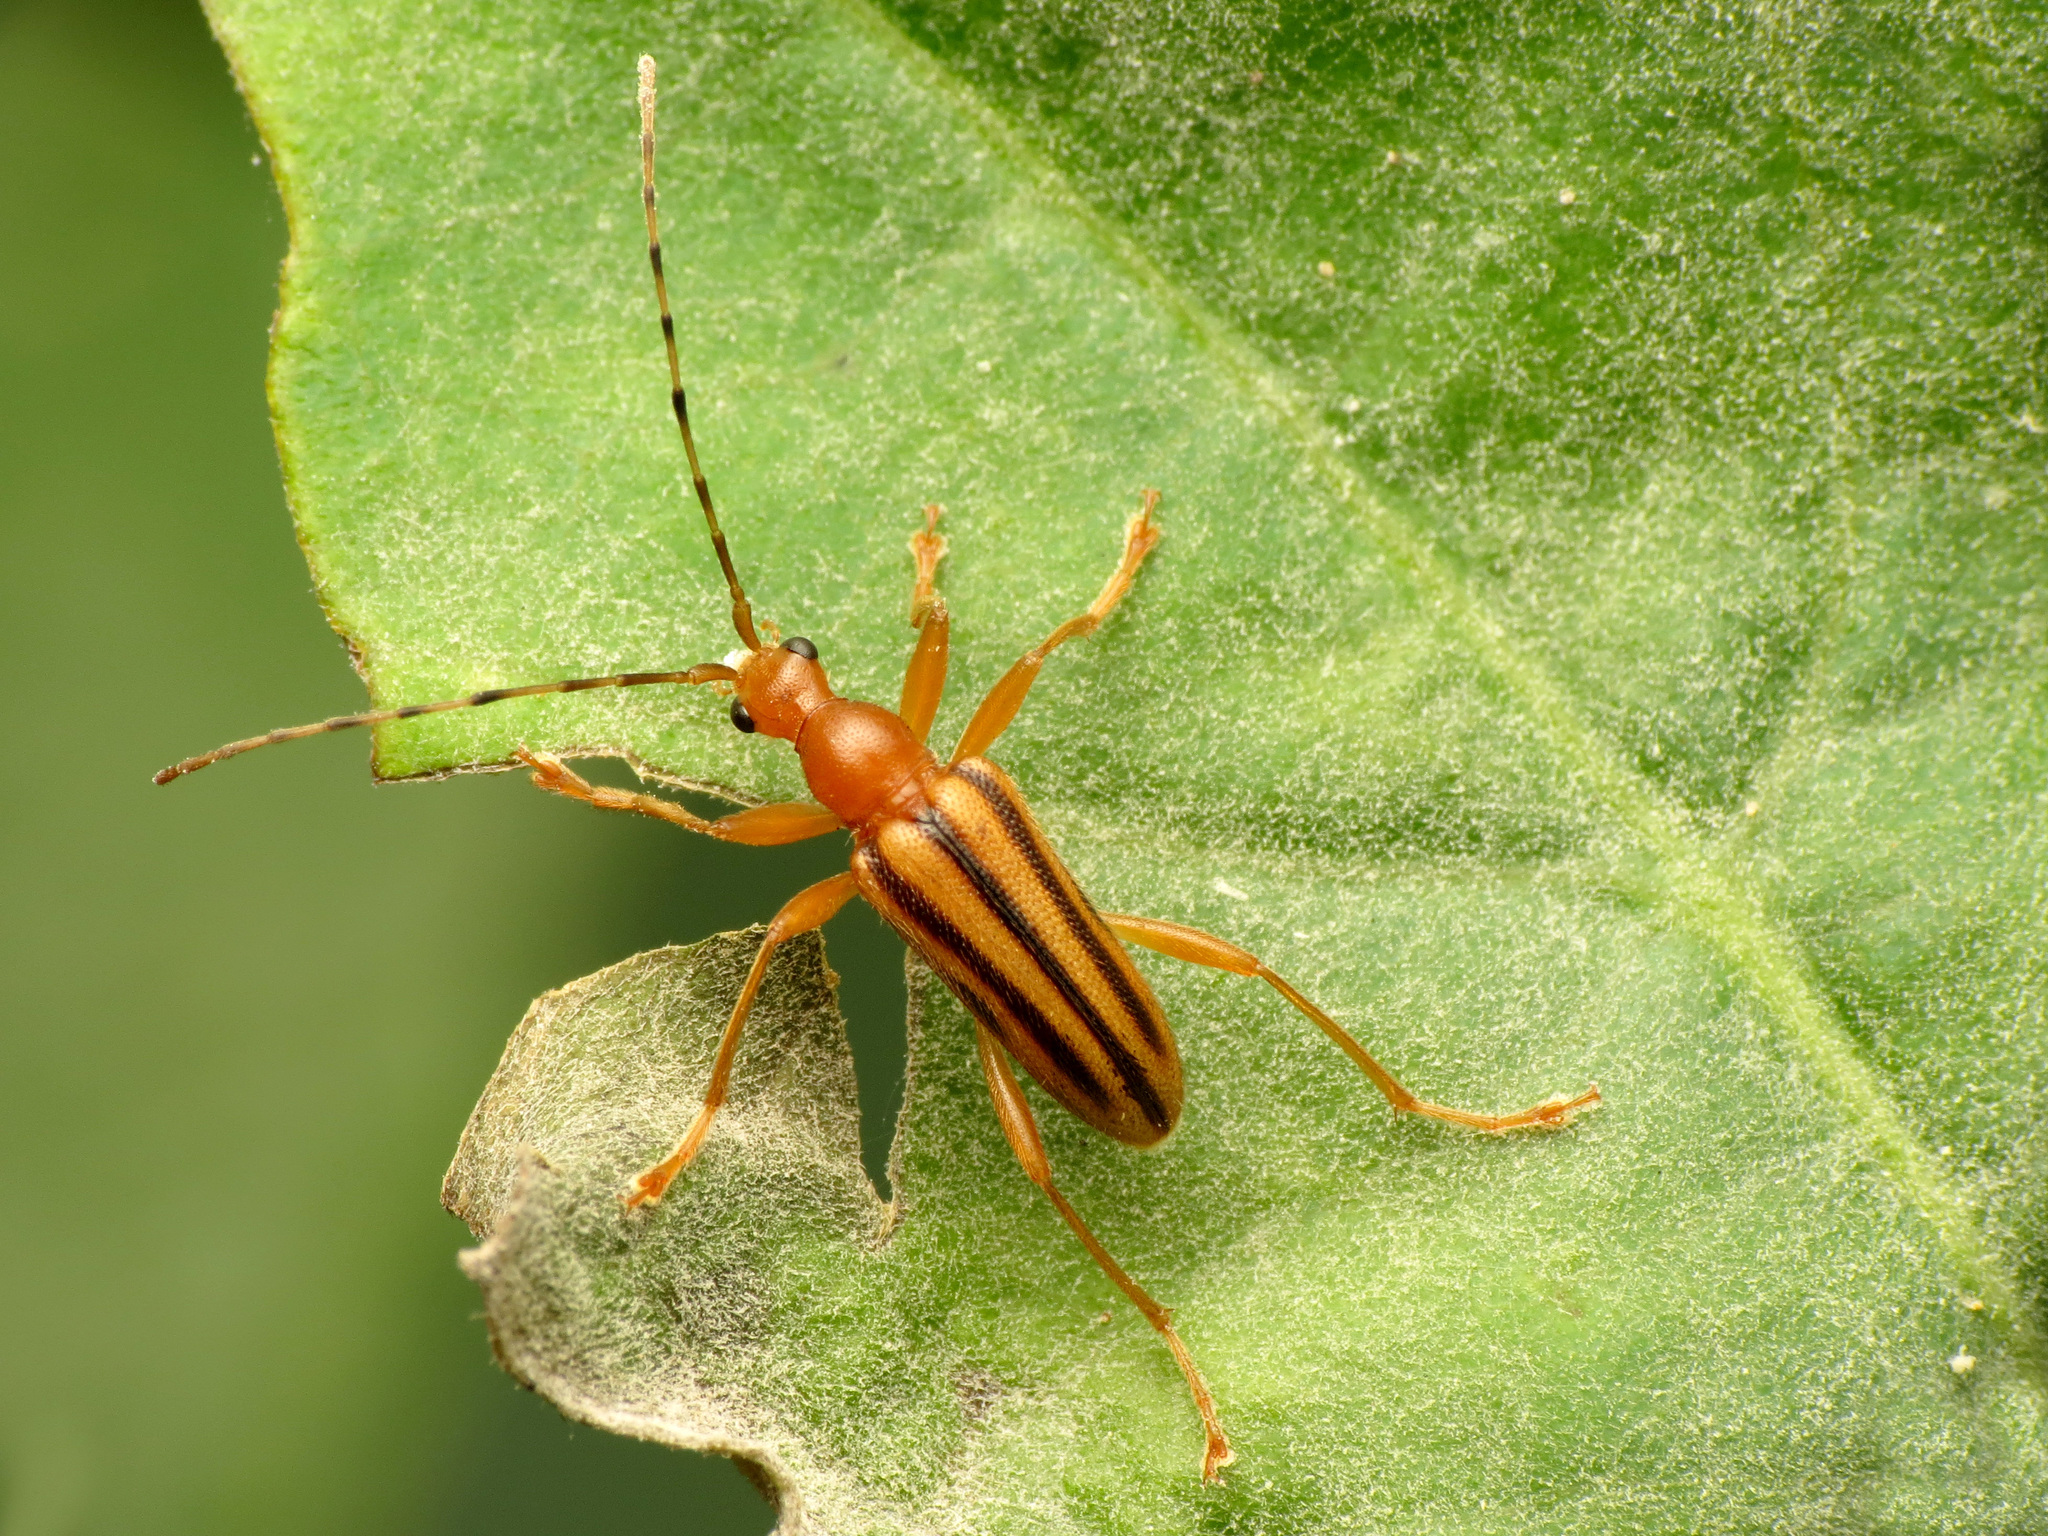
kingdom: Animalia
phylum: Arthropoda
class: Insecta
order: Coleoptera
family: Cerambycidae
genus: Metacmaeops
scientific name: Metacmaeops vittata
